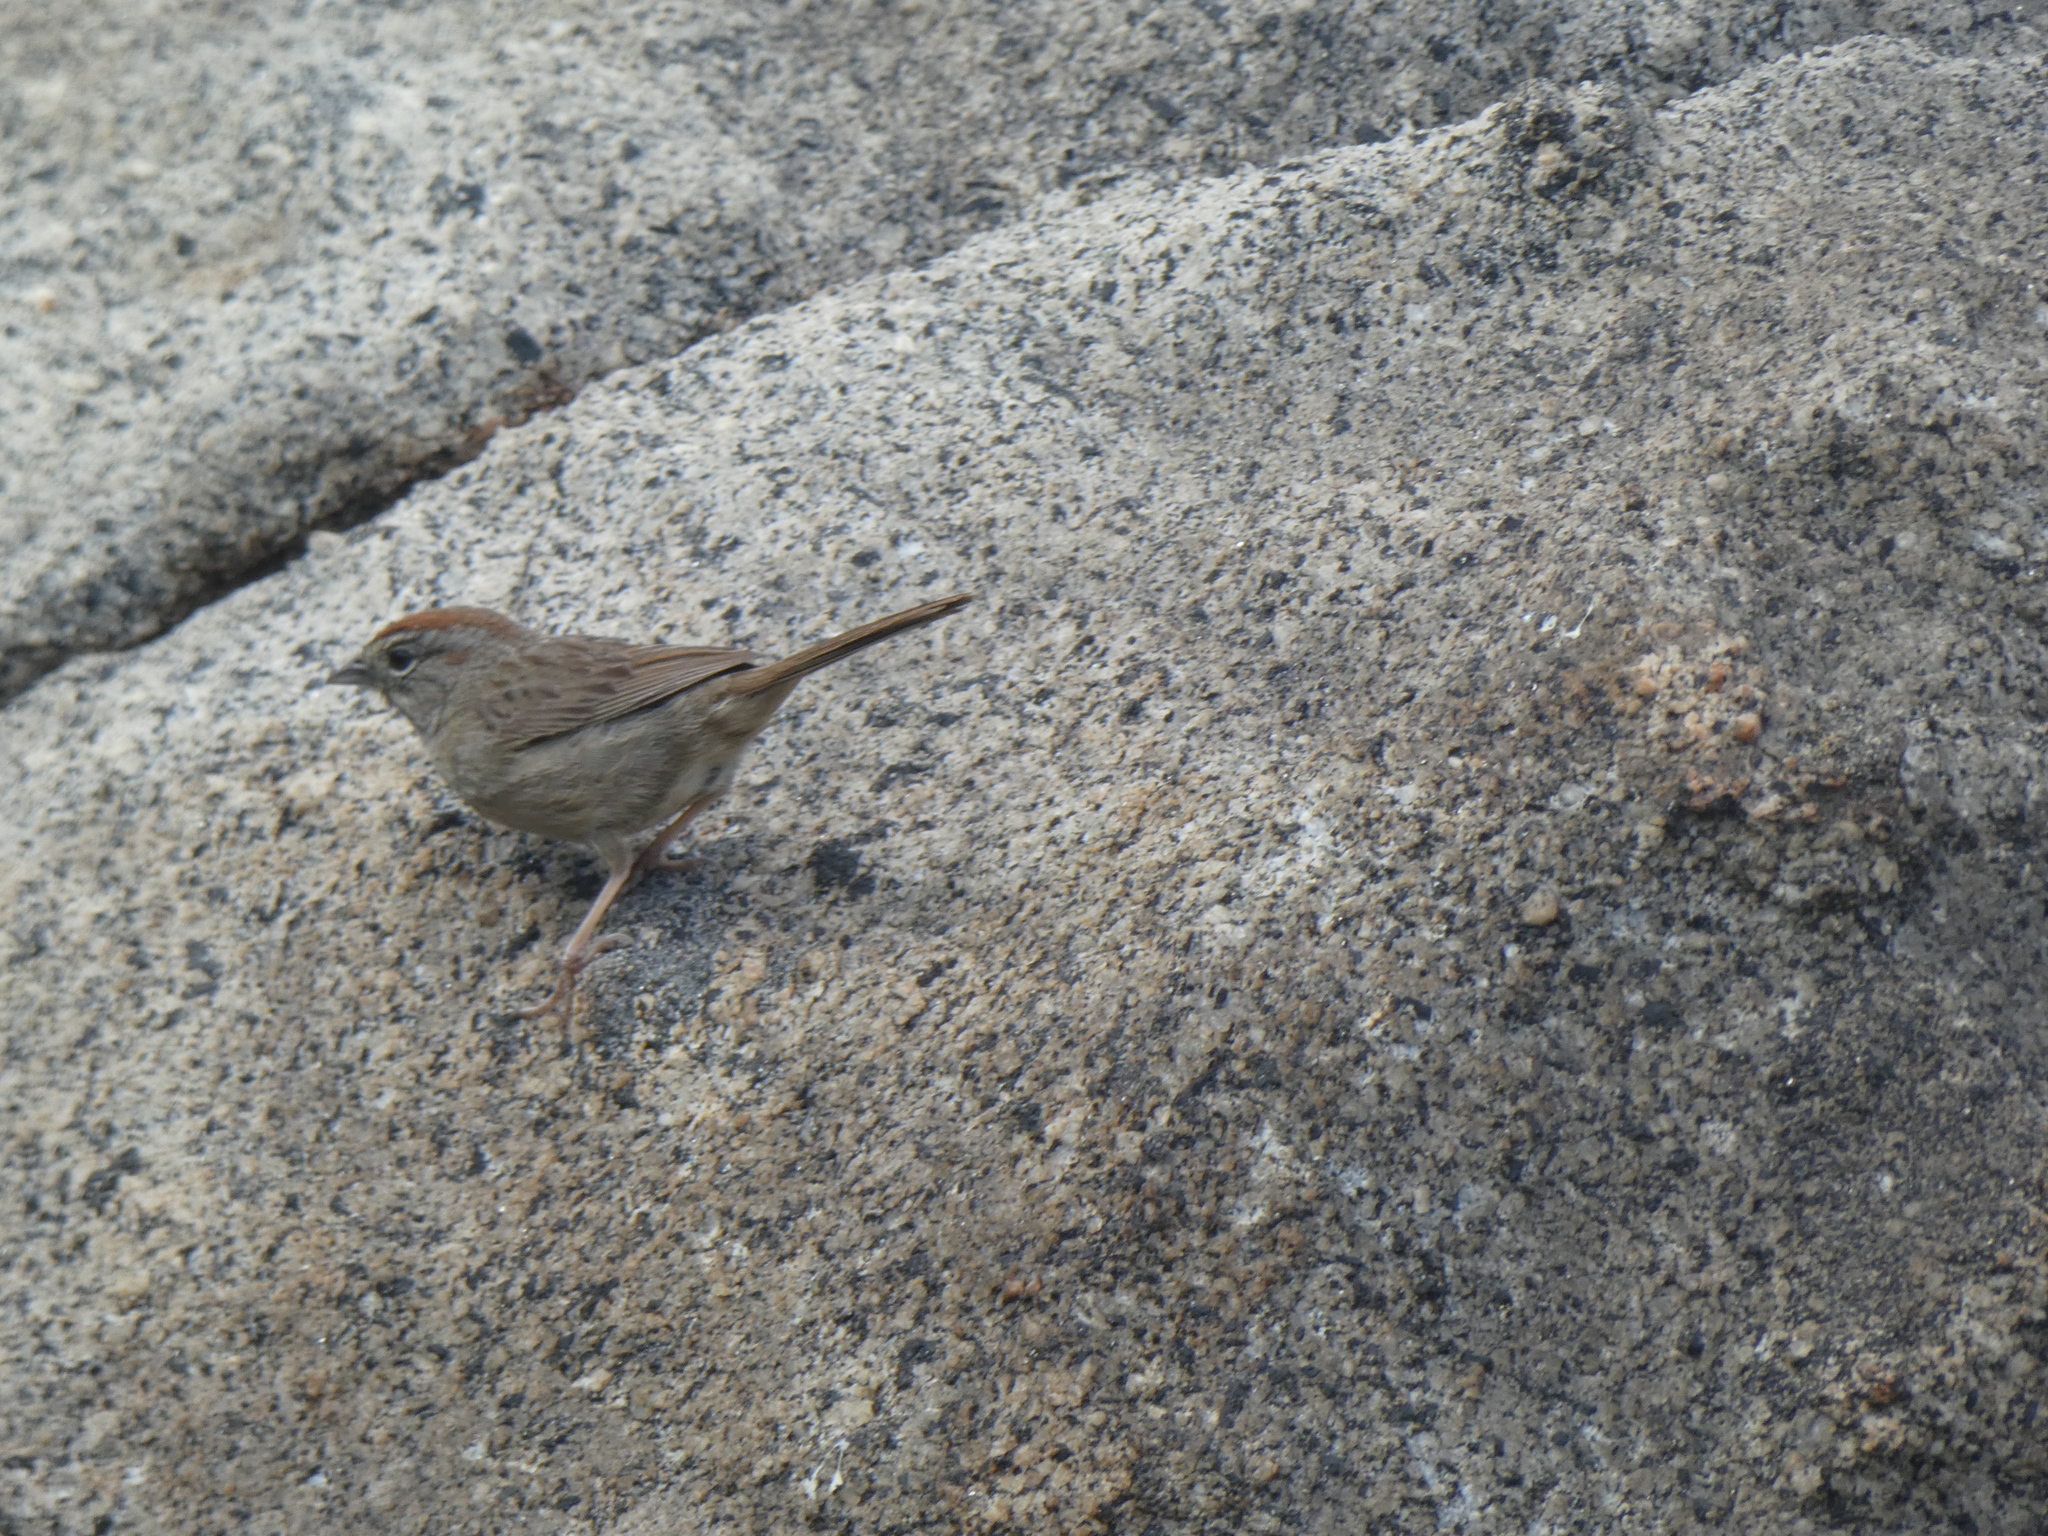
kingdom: Animalia
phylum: Chordata
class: Aves
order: Passeriformes
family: Passerellidae
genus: Aimophila
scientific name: Aimophila ruficeps
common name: Rufous-crowned sparrow
